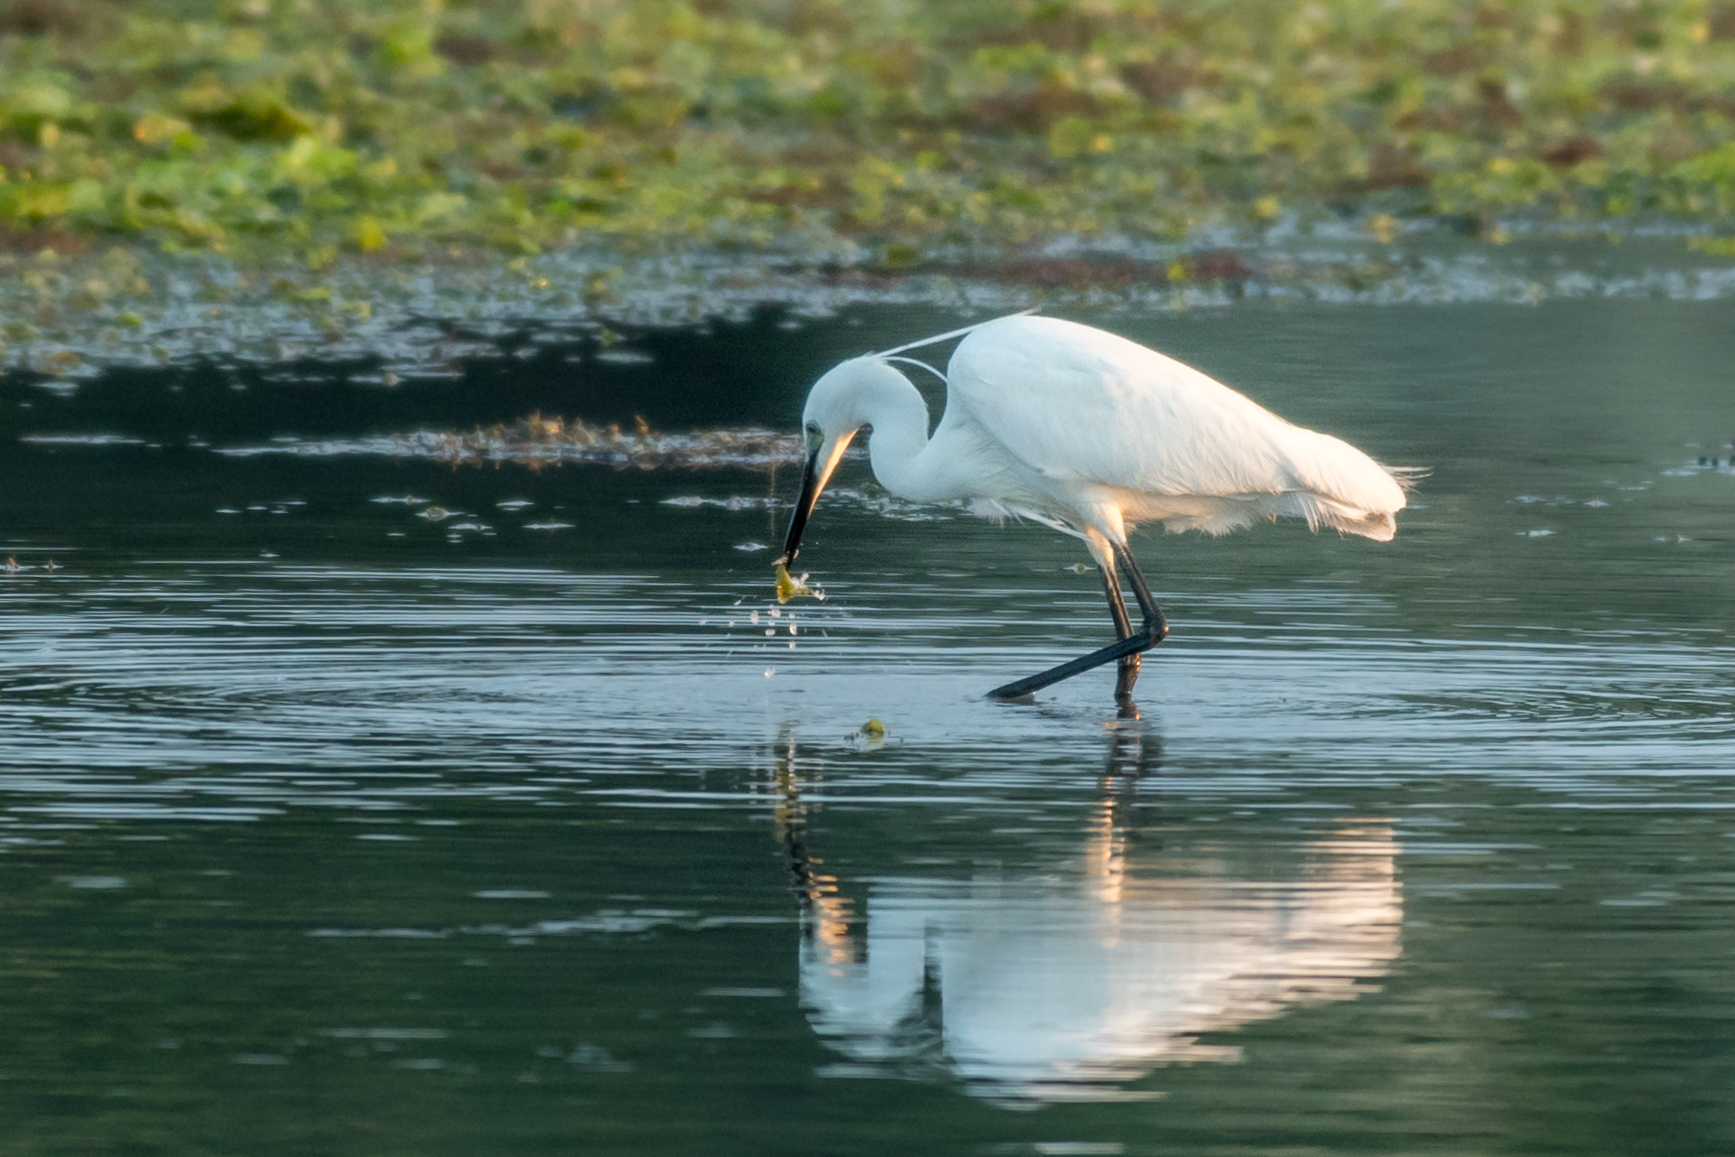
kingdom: Animalia
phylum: Chordata
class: Aves
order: Pelecaniformes
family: Ardeidae
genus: Egretta
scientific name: Egretta garzetta
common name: Little egret
